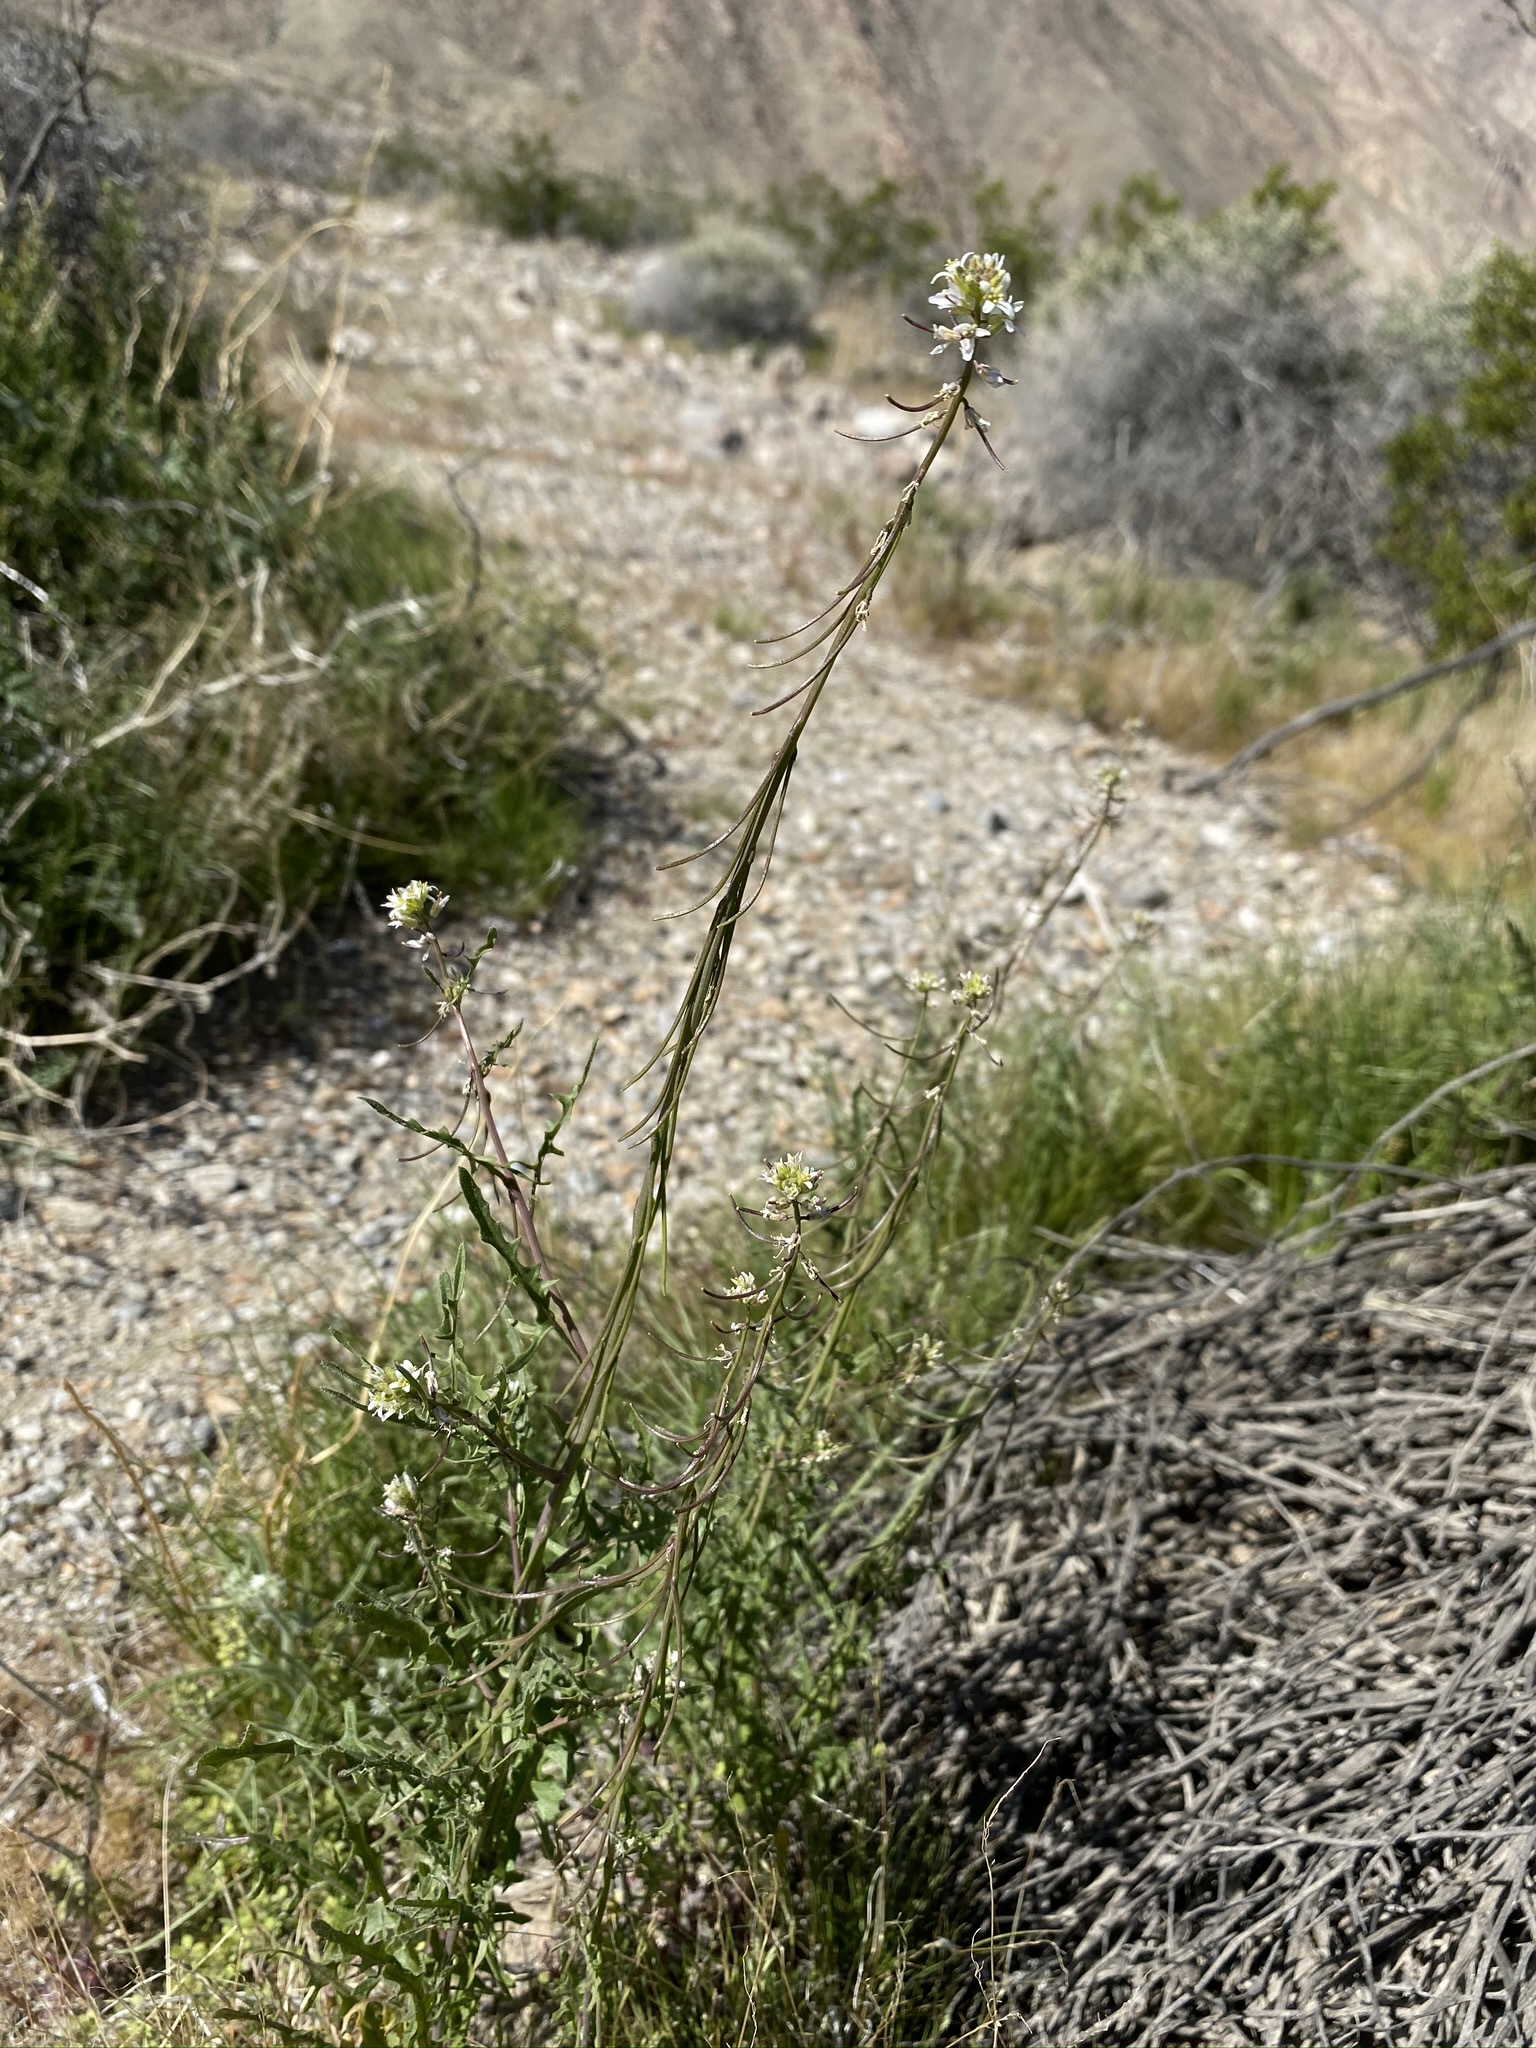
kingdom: Plantae
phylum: Tracheophyta
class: Magnoliopsida
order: Brassicales
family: Brassicaceae
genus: Streptanthus
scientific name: Streptanthus lasiophyllus
